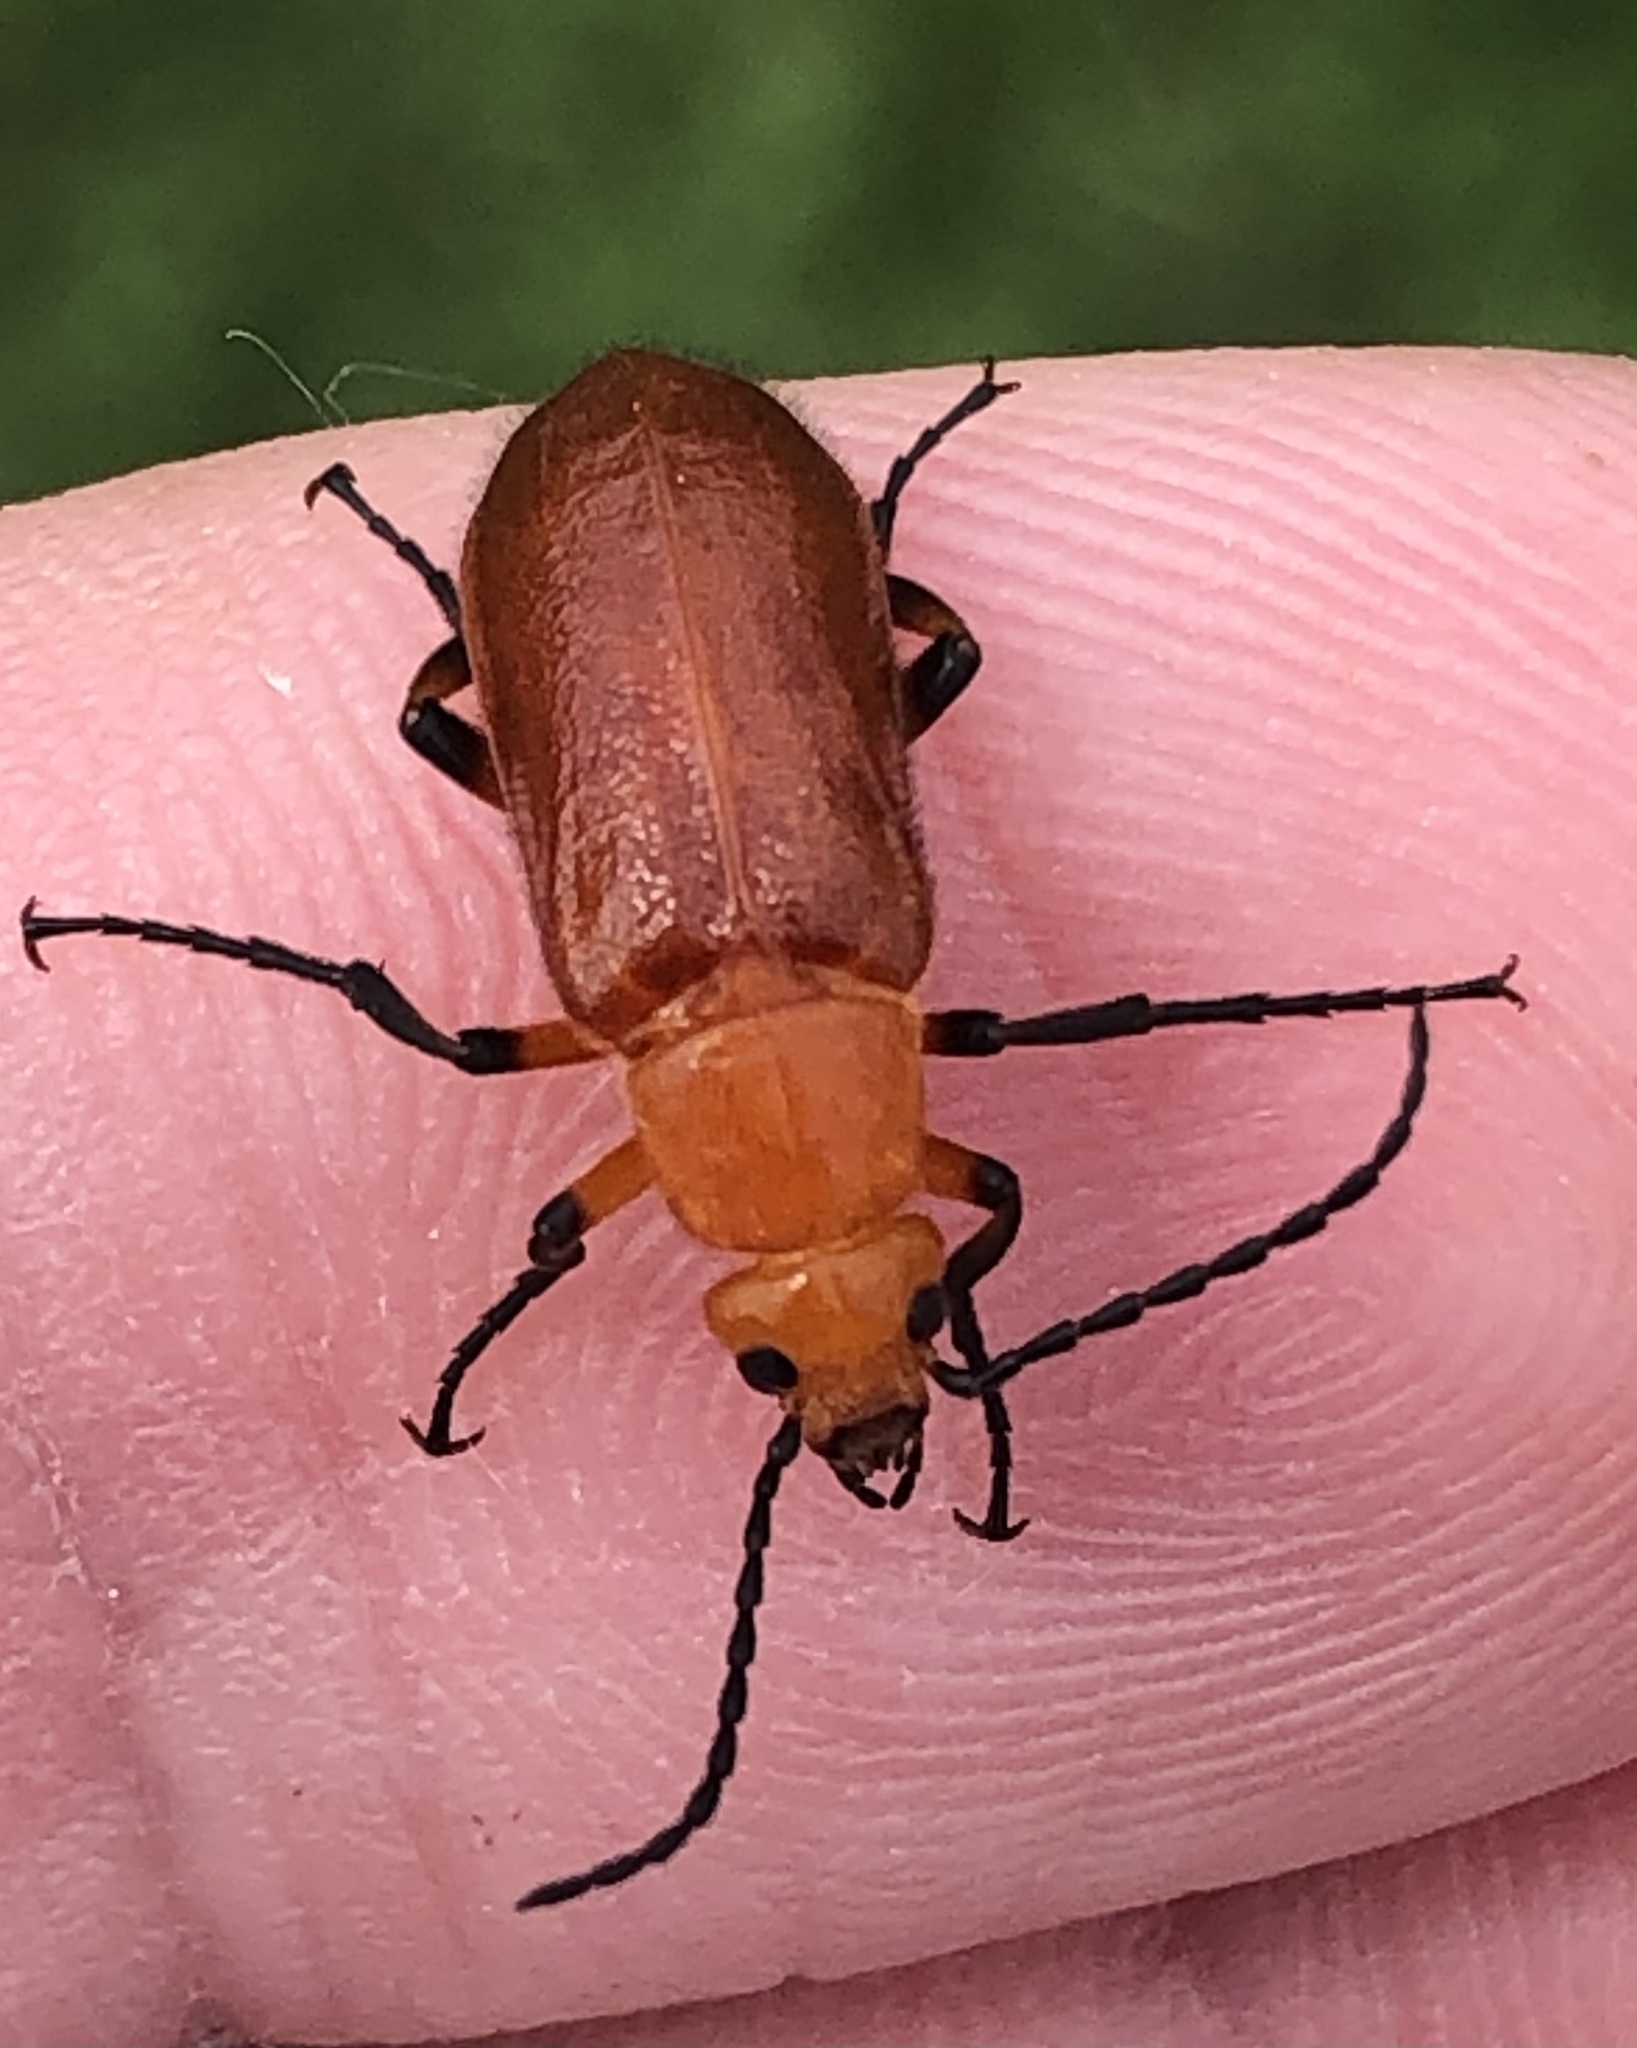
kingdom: Animalia
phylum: Arthropoda
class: Insecta
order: Coleoptera
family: Meloidae
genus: Zonitis
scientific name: Zonitis perforata
